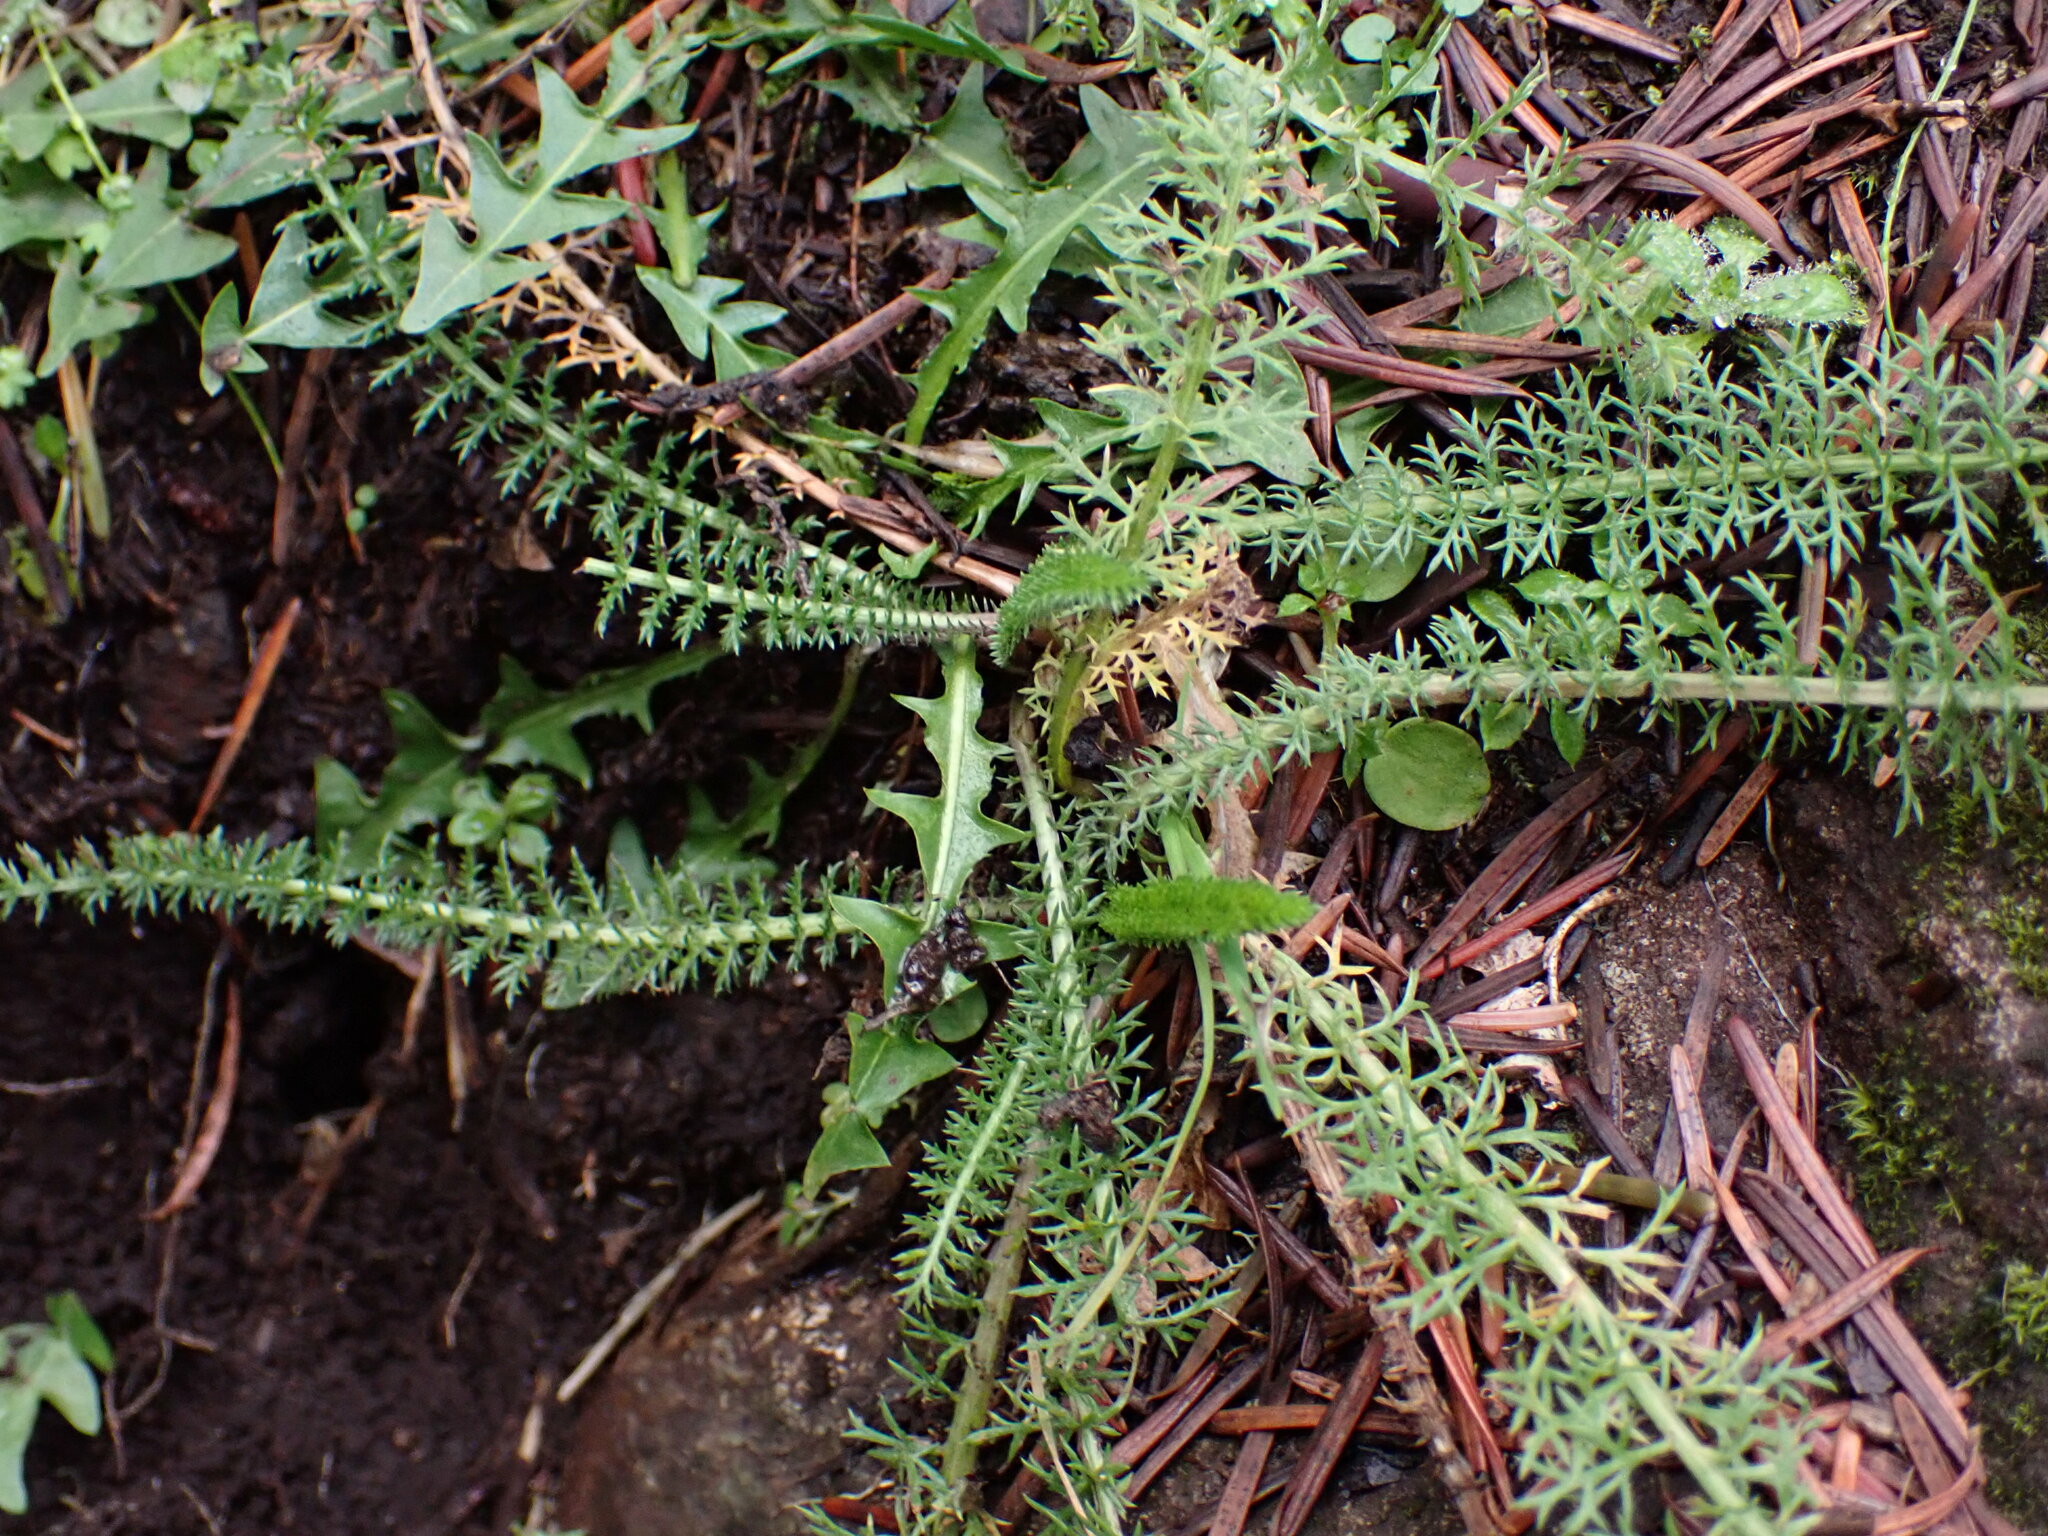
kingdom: Plantae
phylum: Tracheophyta
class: Magnoliopsida
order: Asterales
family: Asteraceae
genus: Achillea
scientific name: Achillea millefolium
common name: Yarrow
